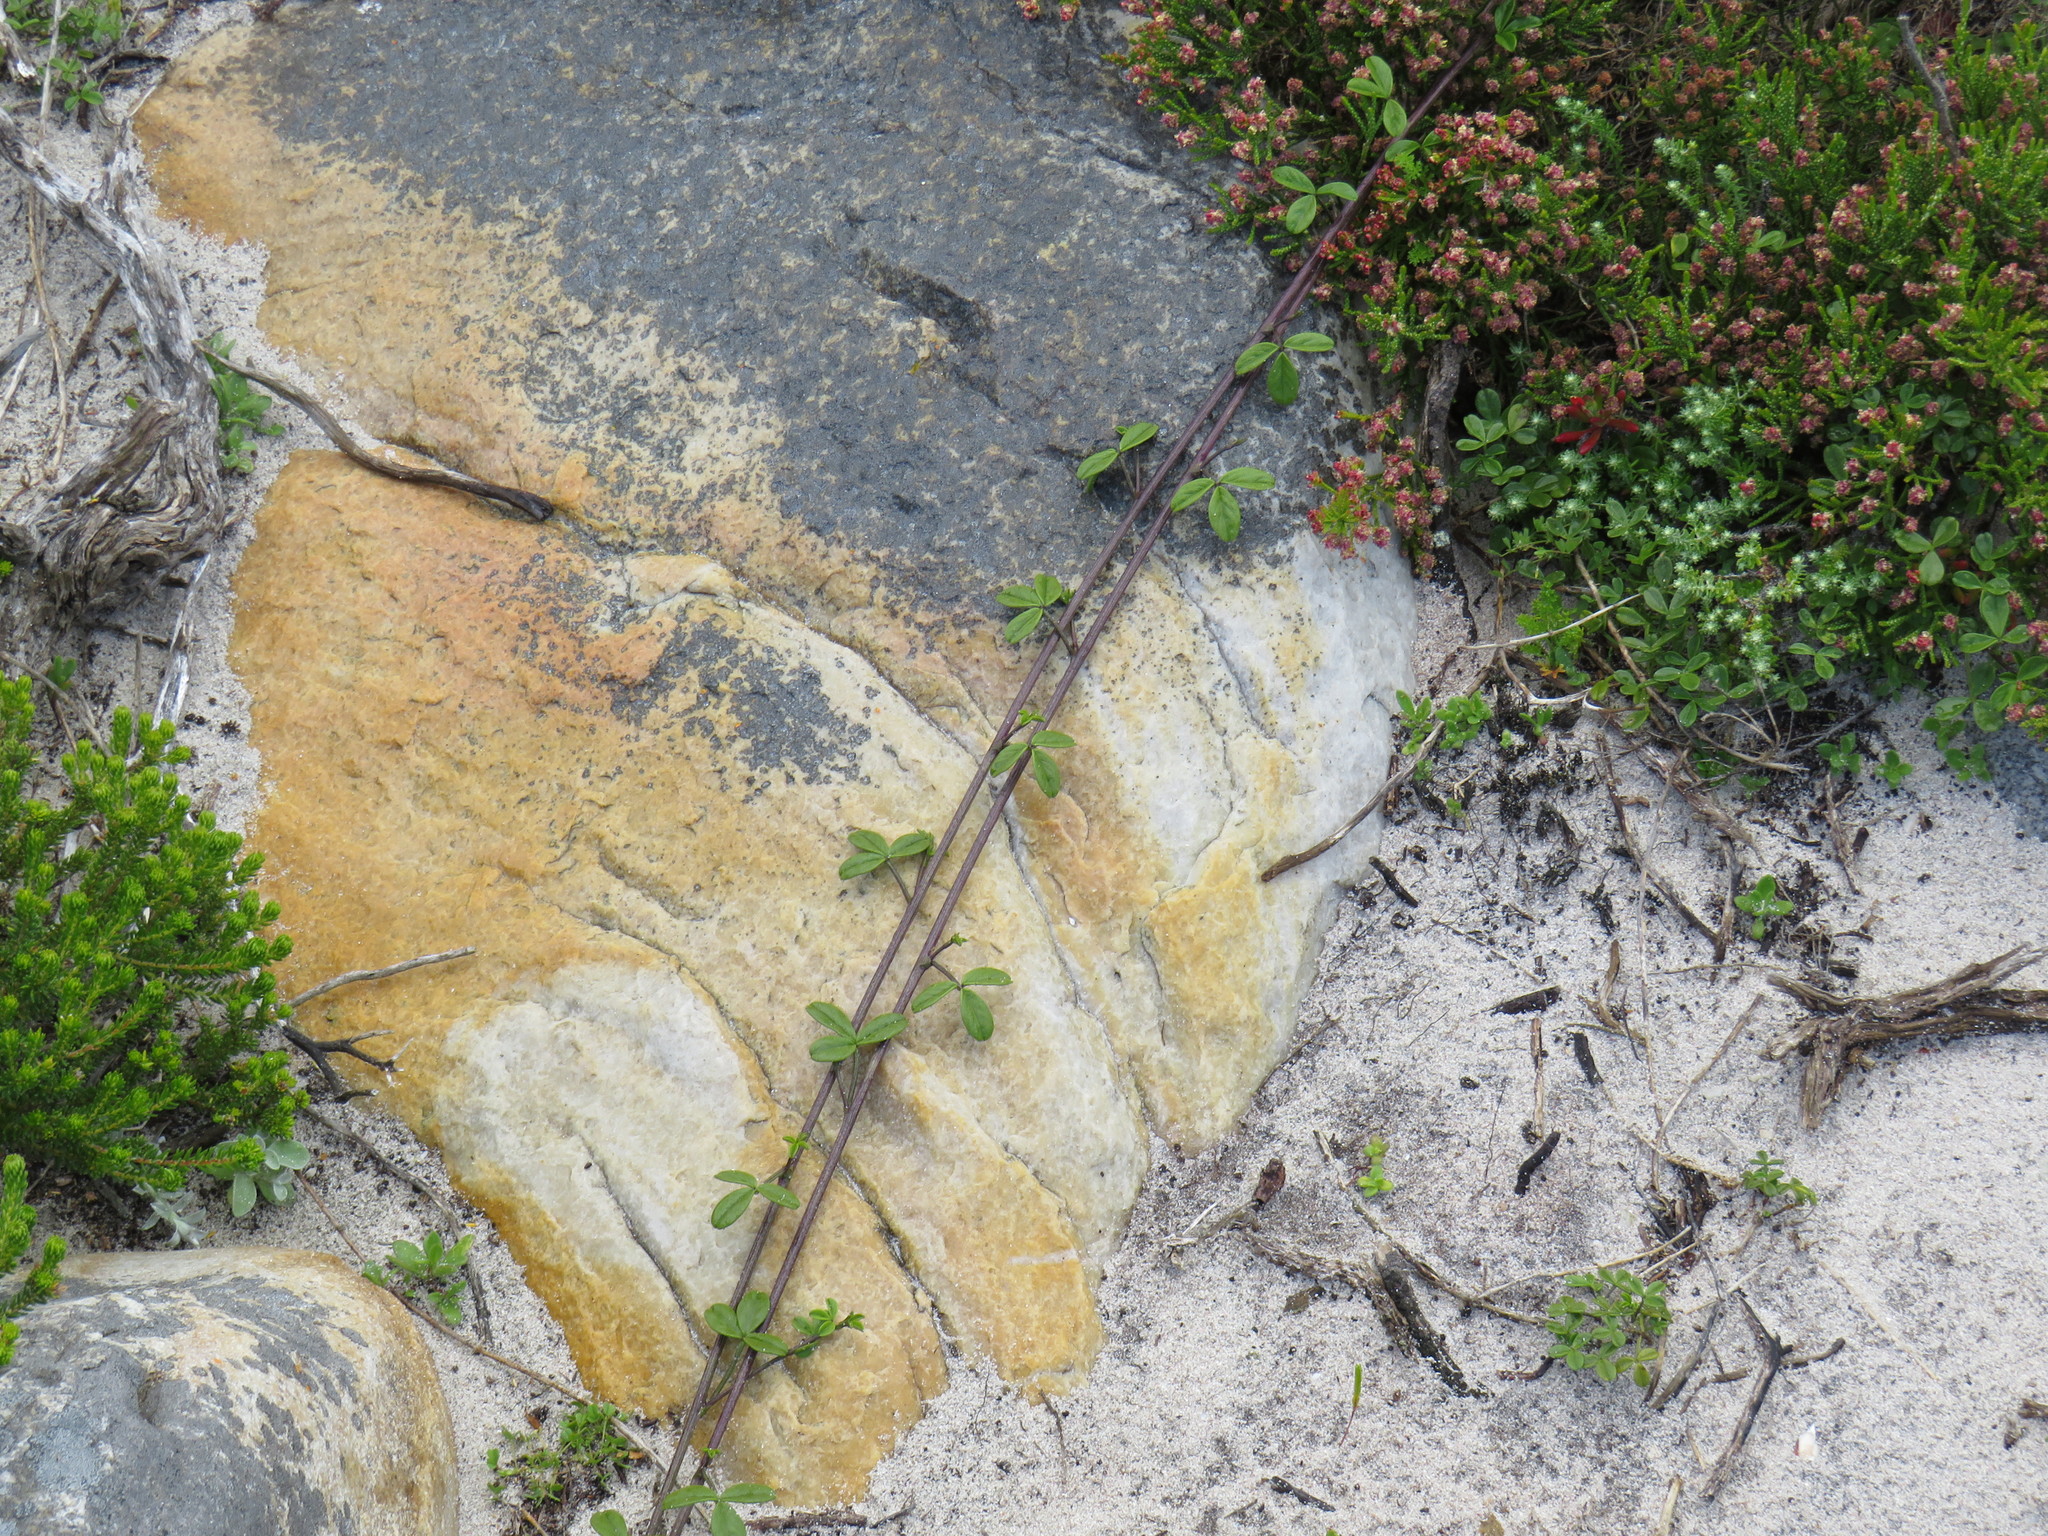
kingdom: Plantae
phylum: Tracheophyta
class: Magnoliopsida
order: Fabales
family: Fabaceae
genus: Psoralea
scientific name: Psoralea repens
